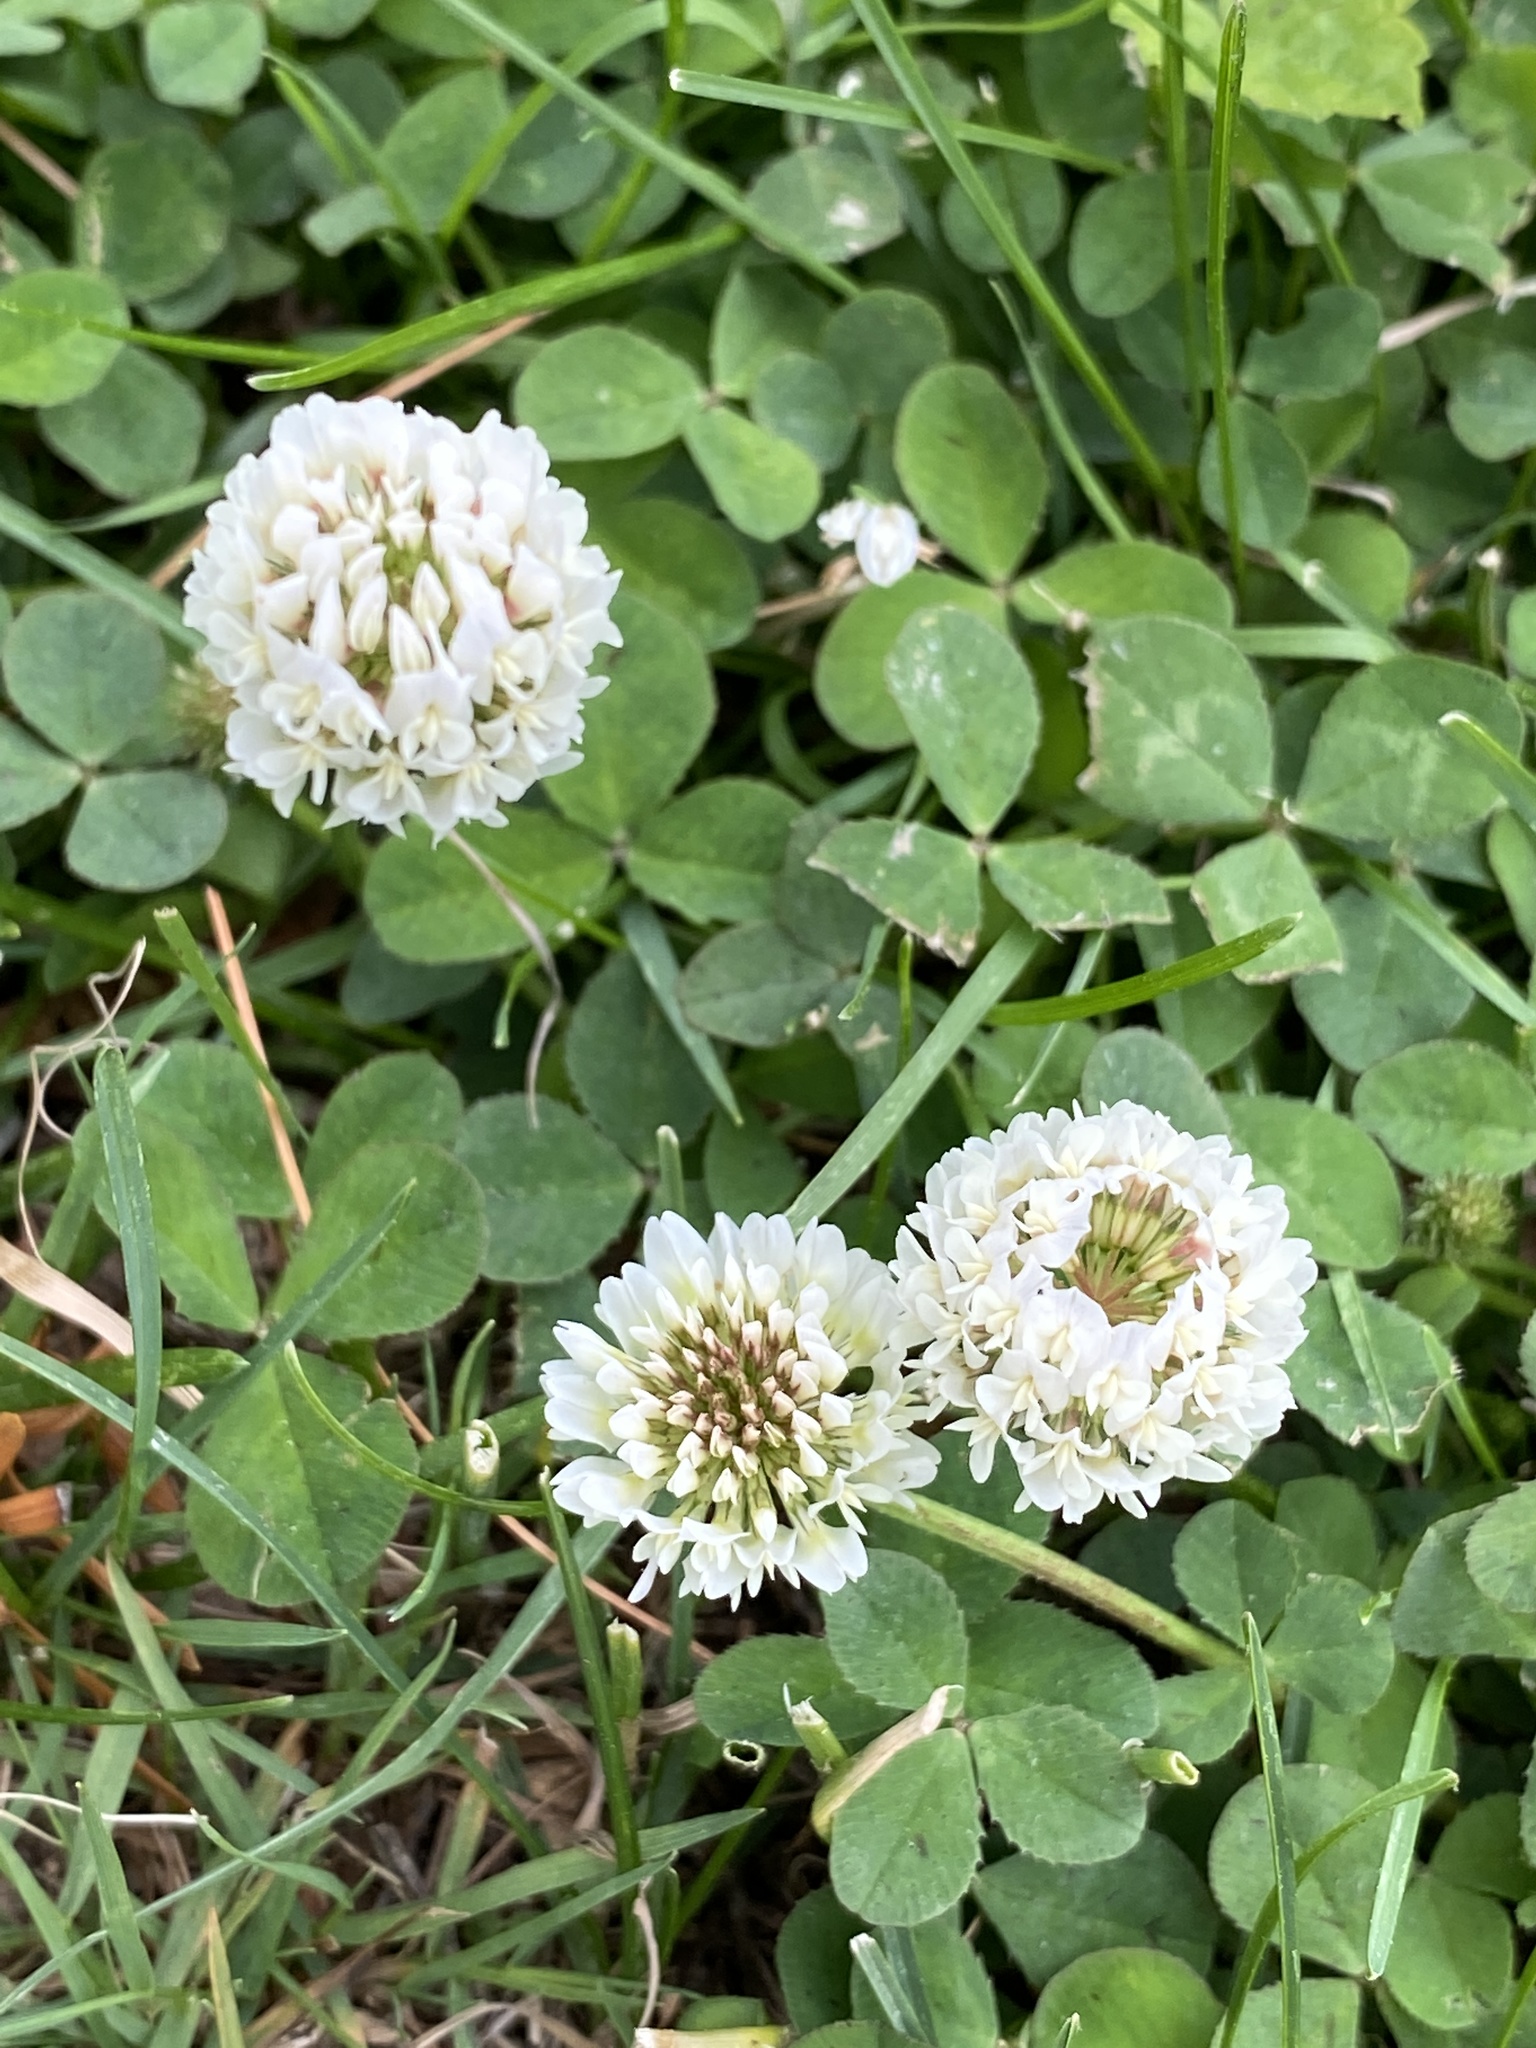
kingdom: Plantae
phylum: Tracheophyta
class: Magnoliopsida
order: Fabales
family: Fabaceae
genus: Trifolium
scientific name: Trifolium repens
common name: White clover
